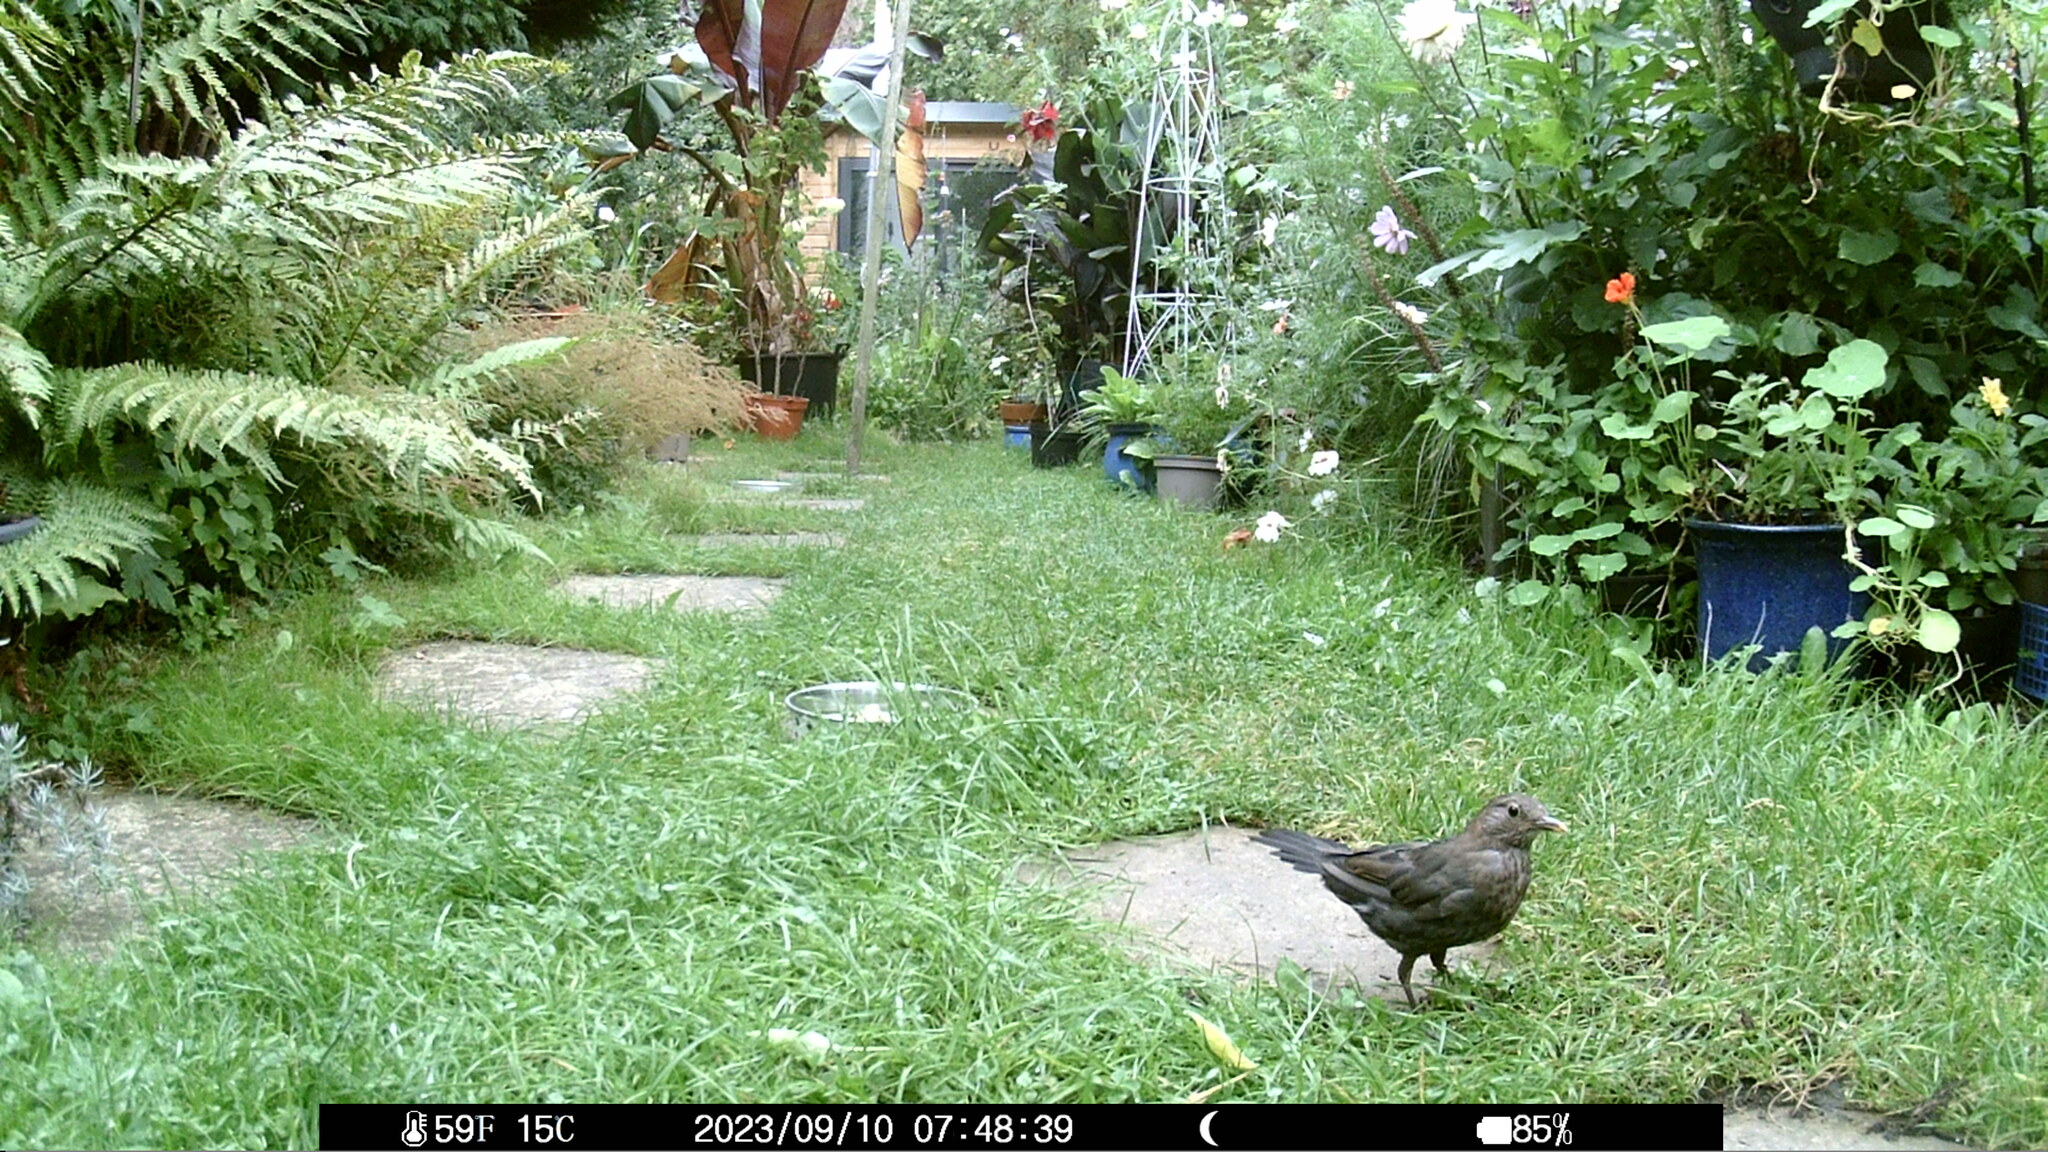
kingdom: Animalia
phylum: Chordata
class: Aves
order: Passeriformes
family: Turdidae
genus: Turdus
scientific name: Turdus merula
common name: Common blackbird
